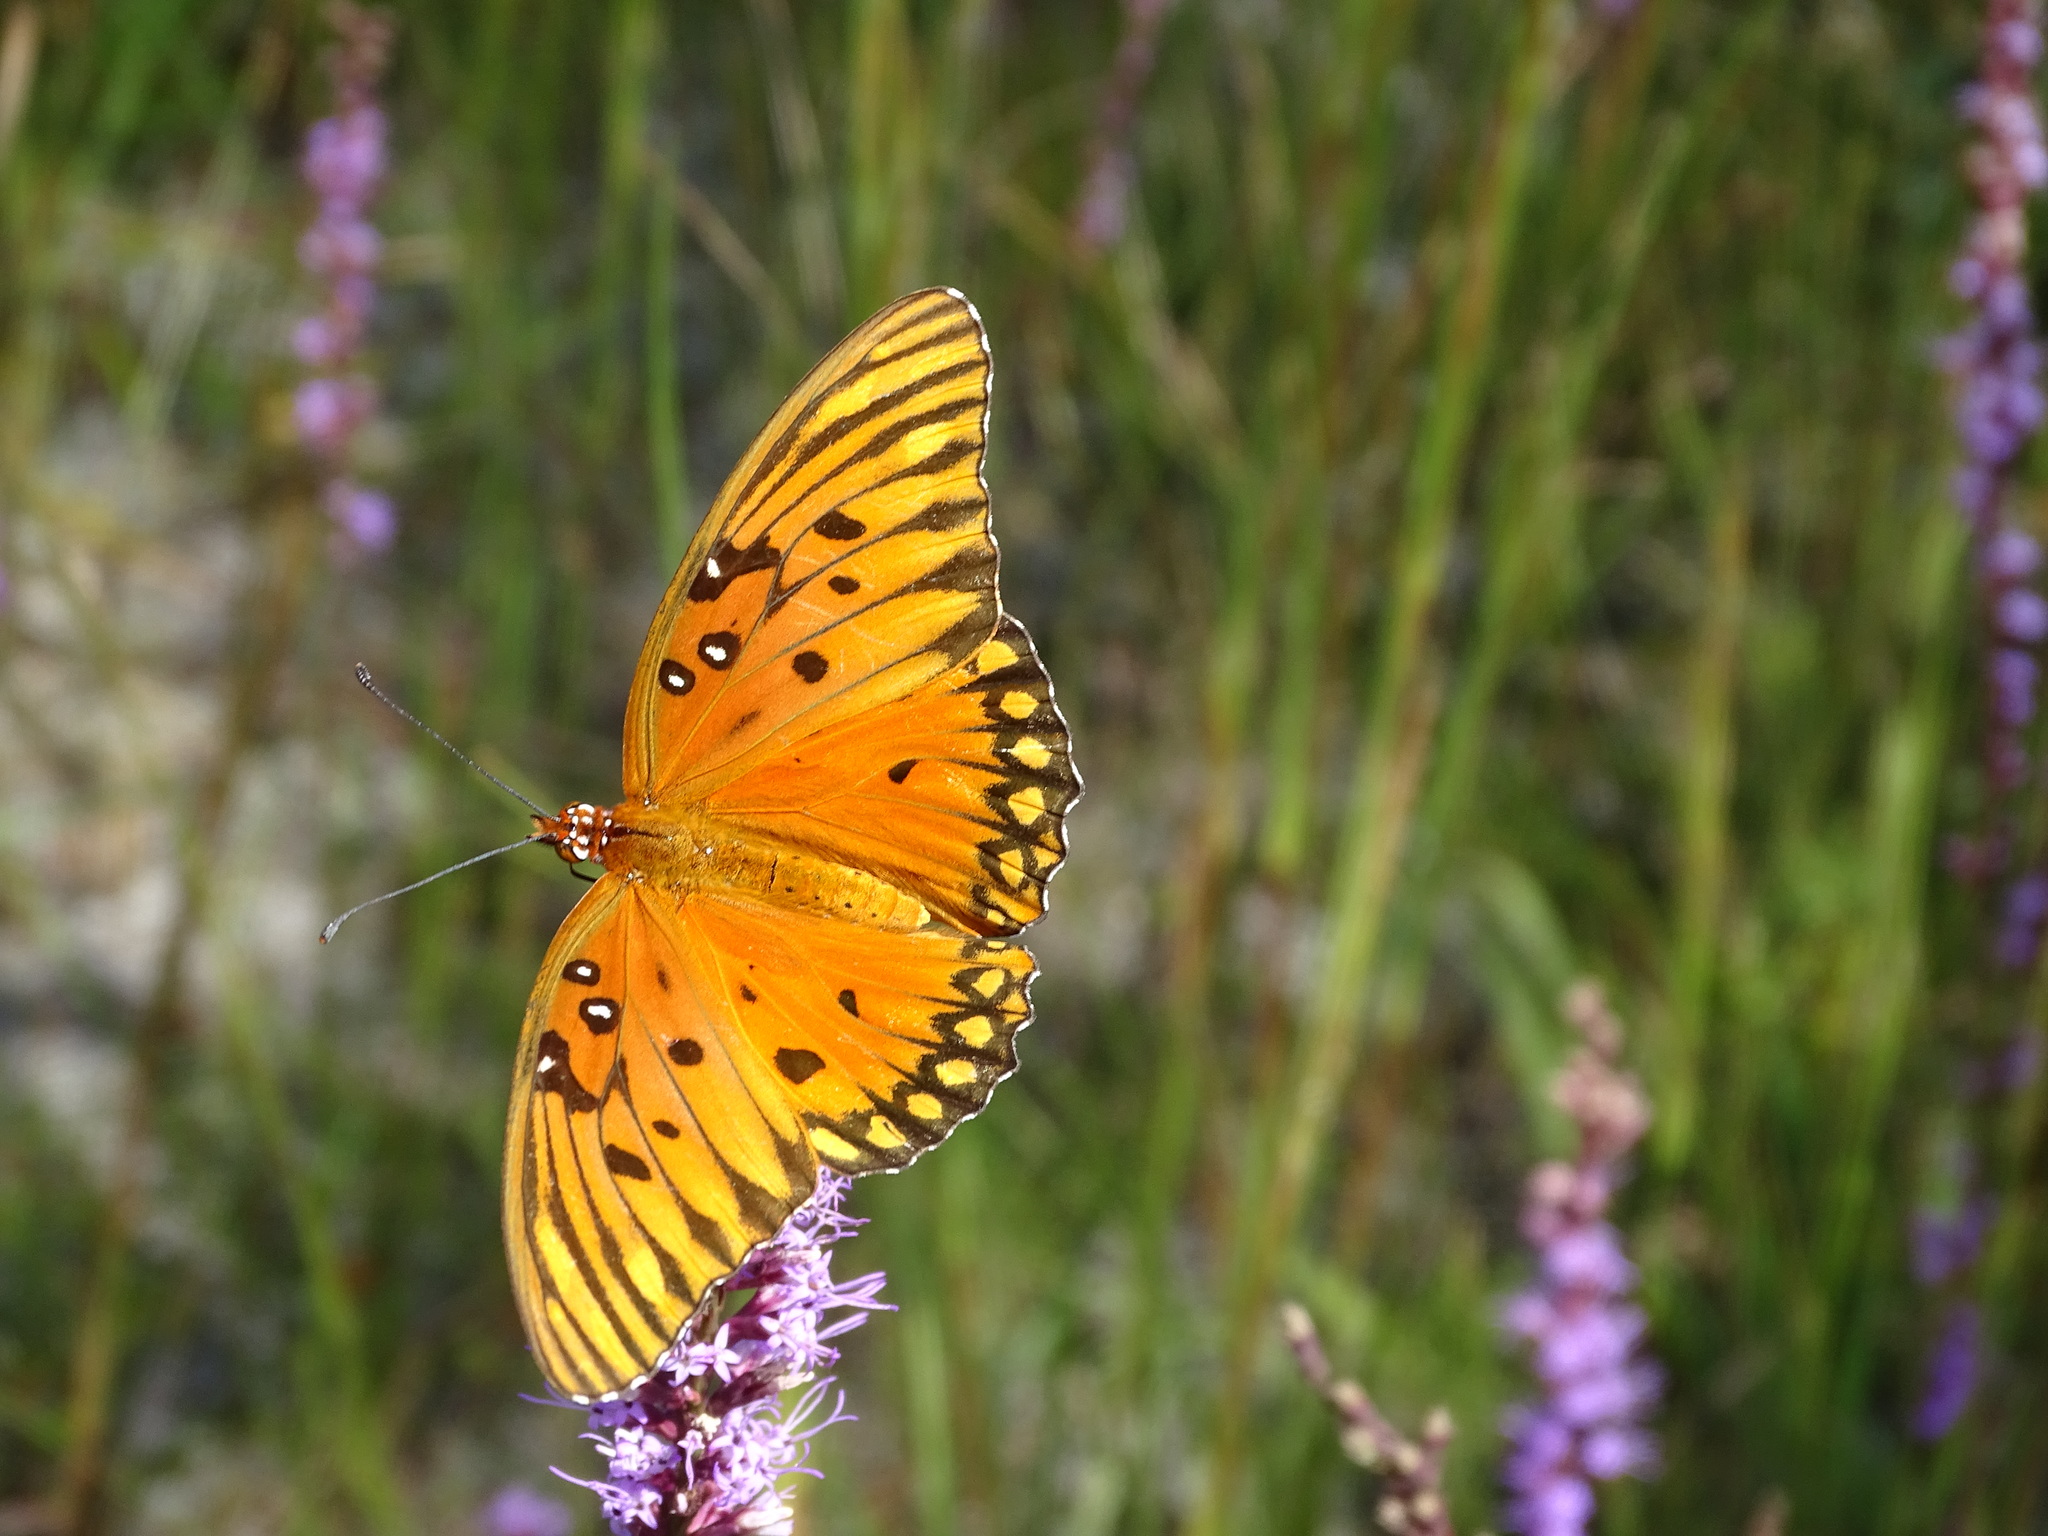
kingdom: Animalia
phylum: Arthropoda
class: Insecta
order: Lepidoptera
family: Nymphalidae
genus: Dione
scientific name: Dione vanillae
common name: Gulf fritillary
